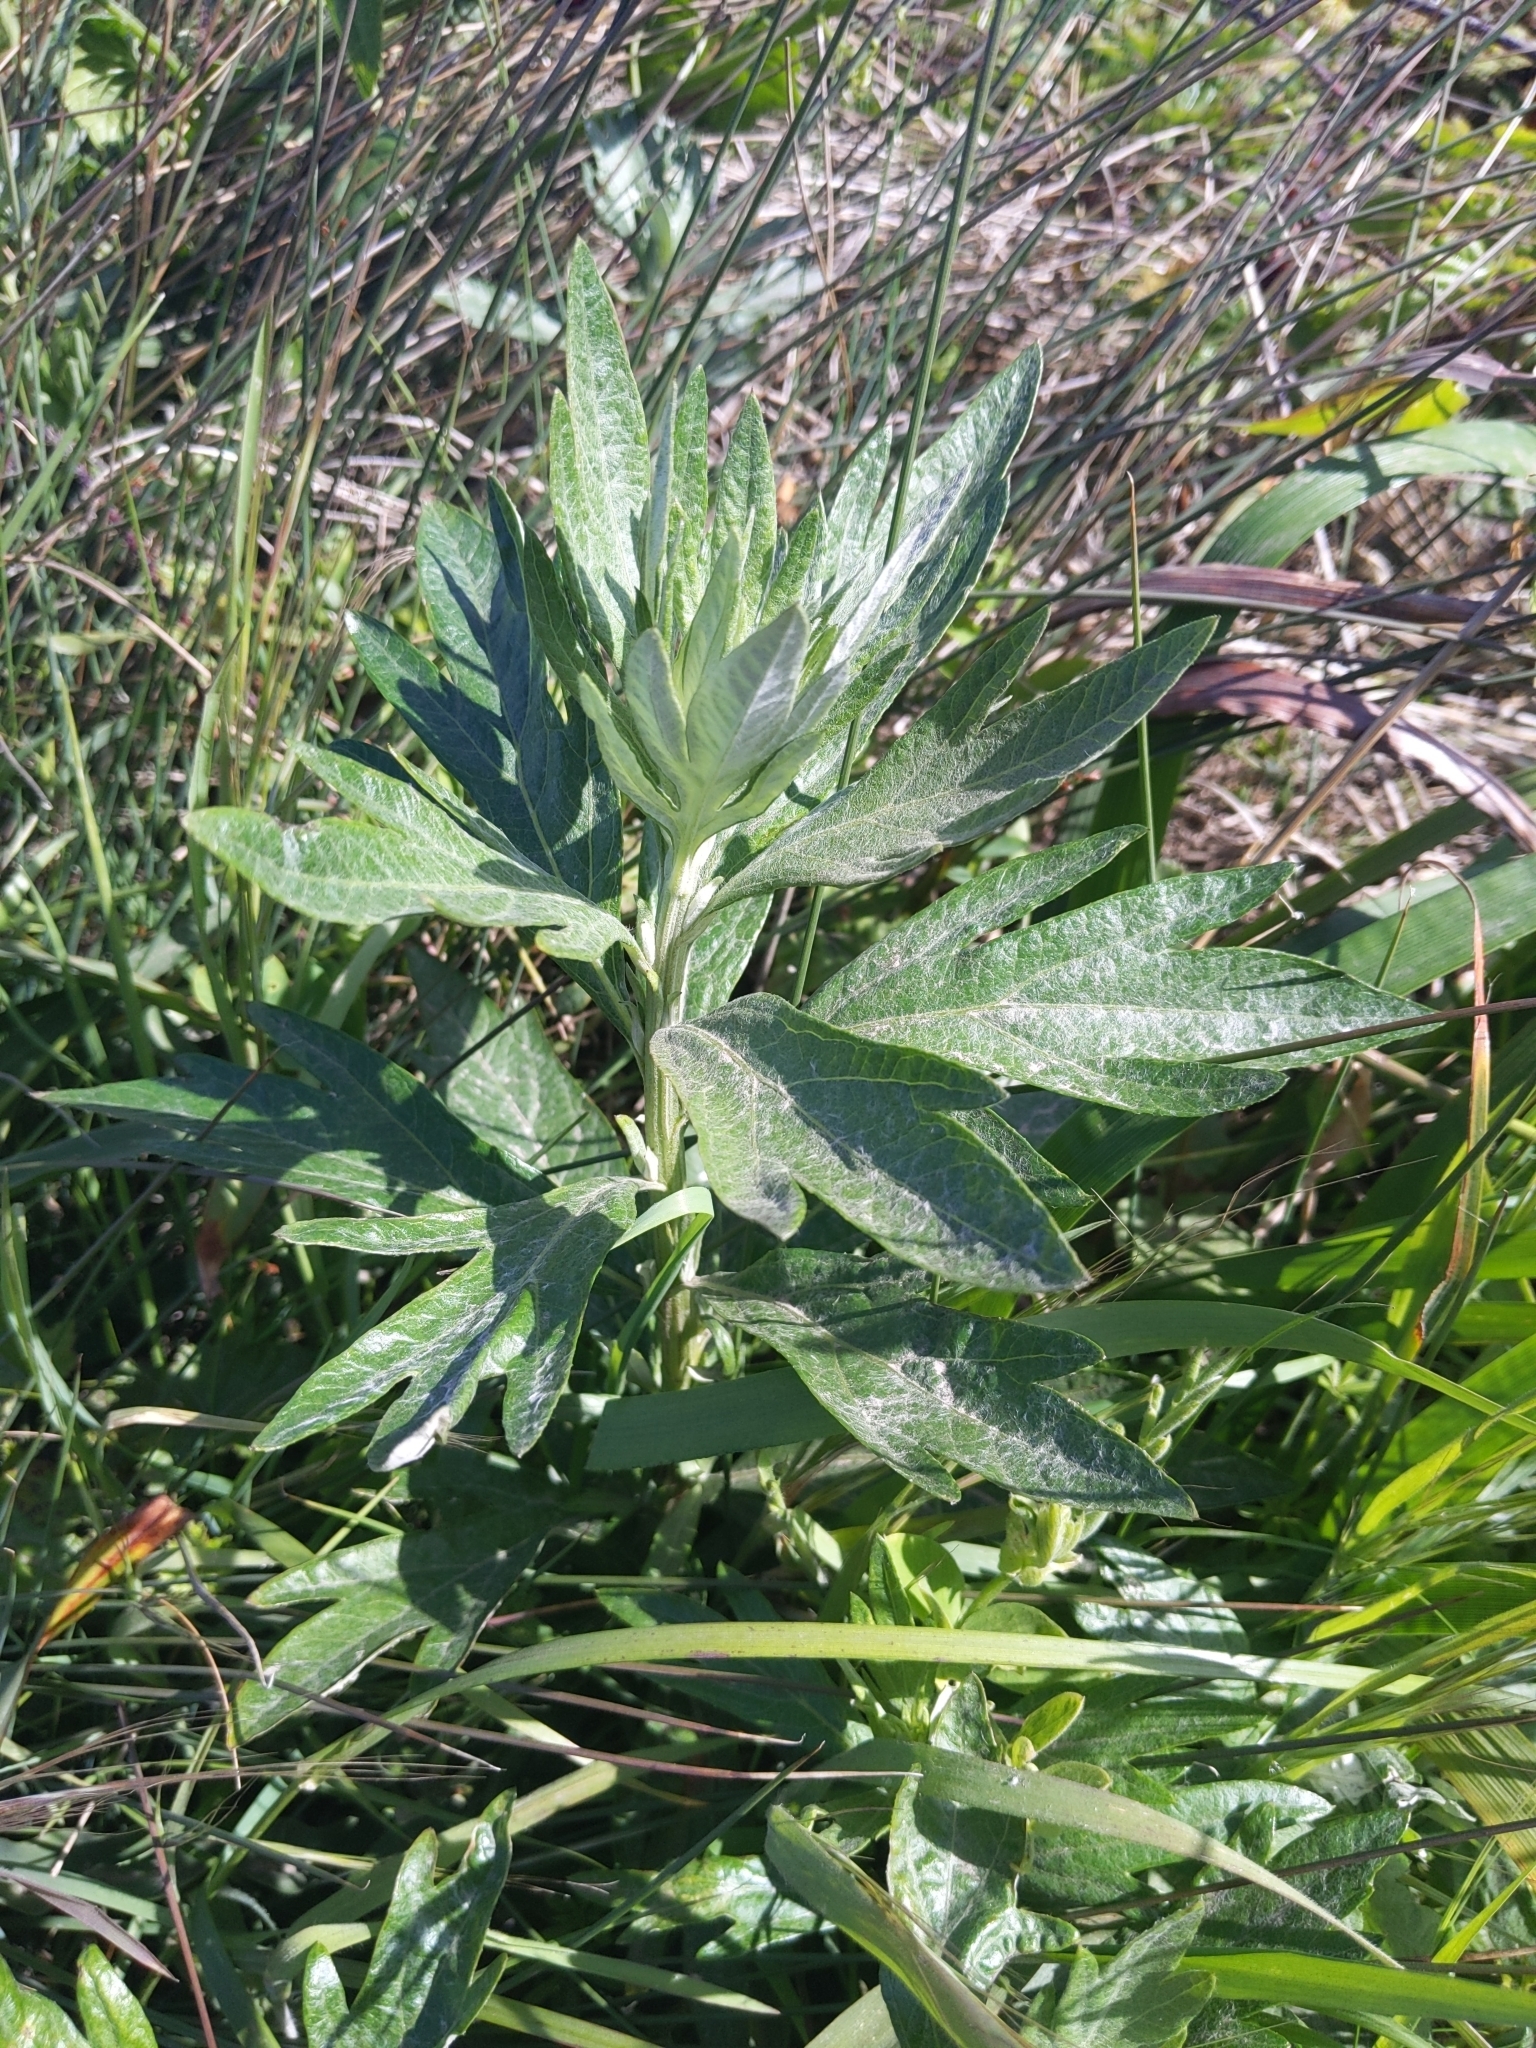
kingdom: Plantae
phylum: Tracheophyta
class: Magnoliopsida
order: Asterales
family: Asteraceae
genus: Artemisia
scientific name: Artemisia douglasiana
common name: Northwest mugwort
